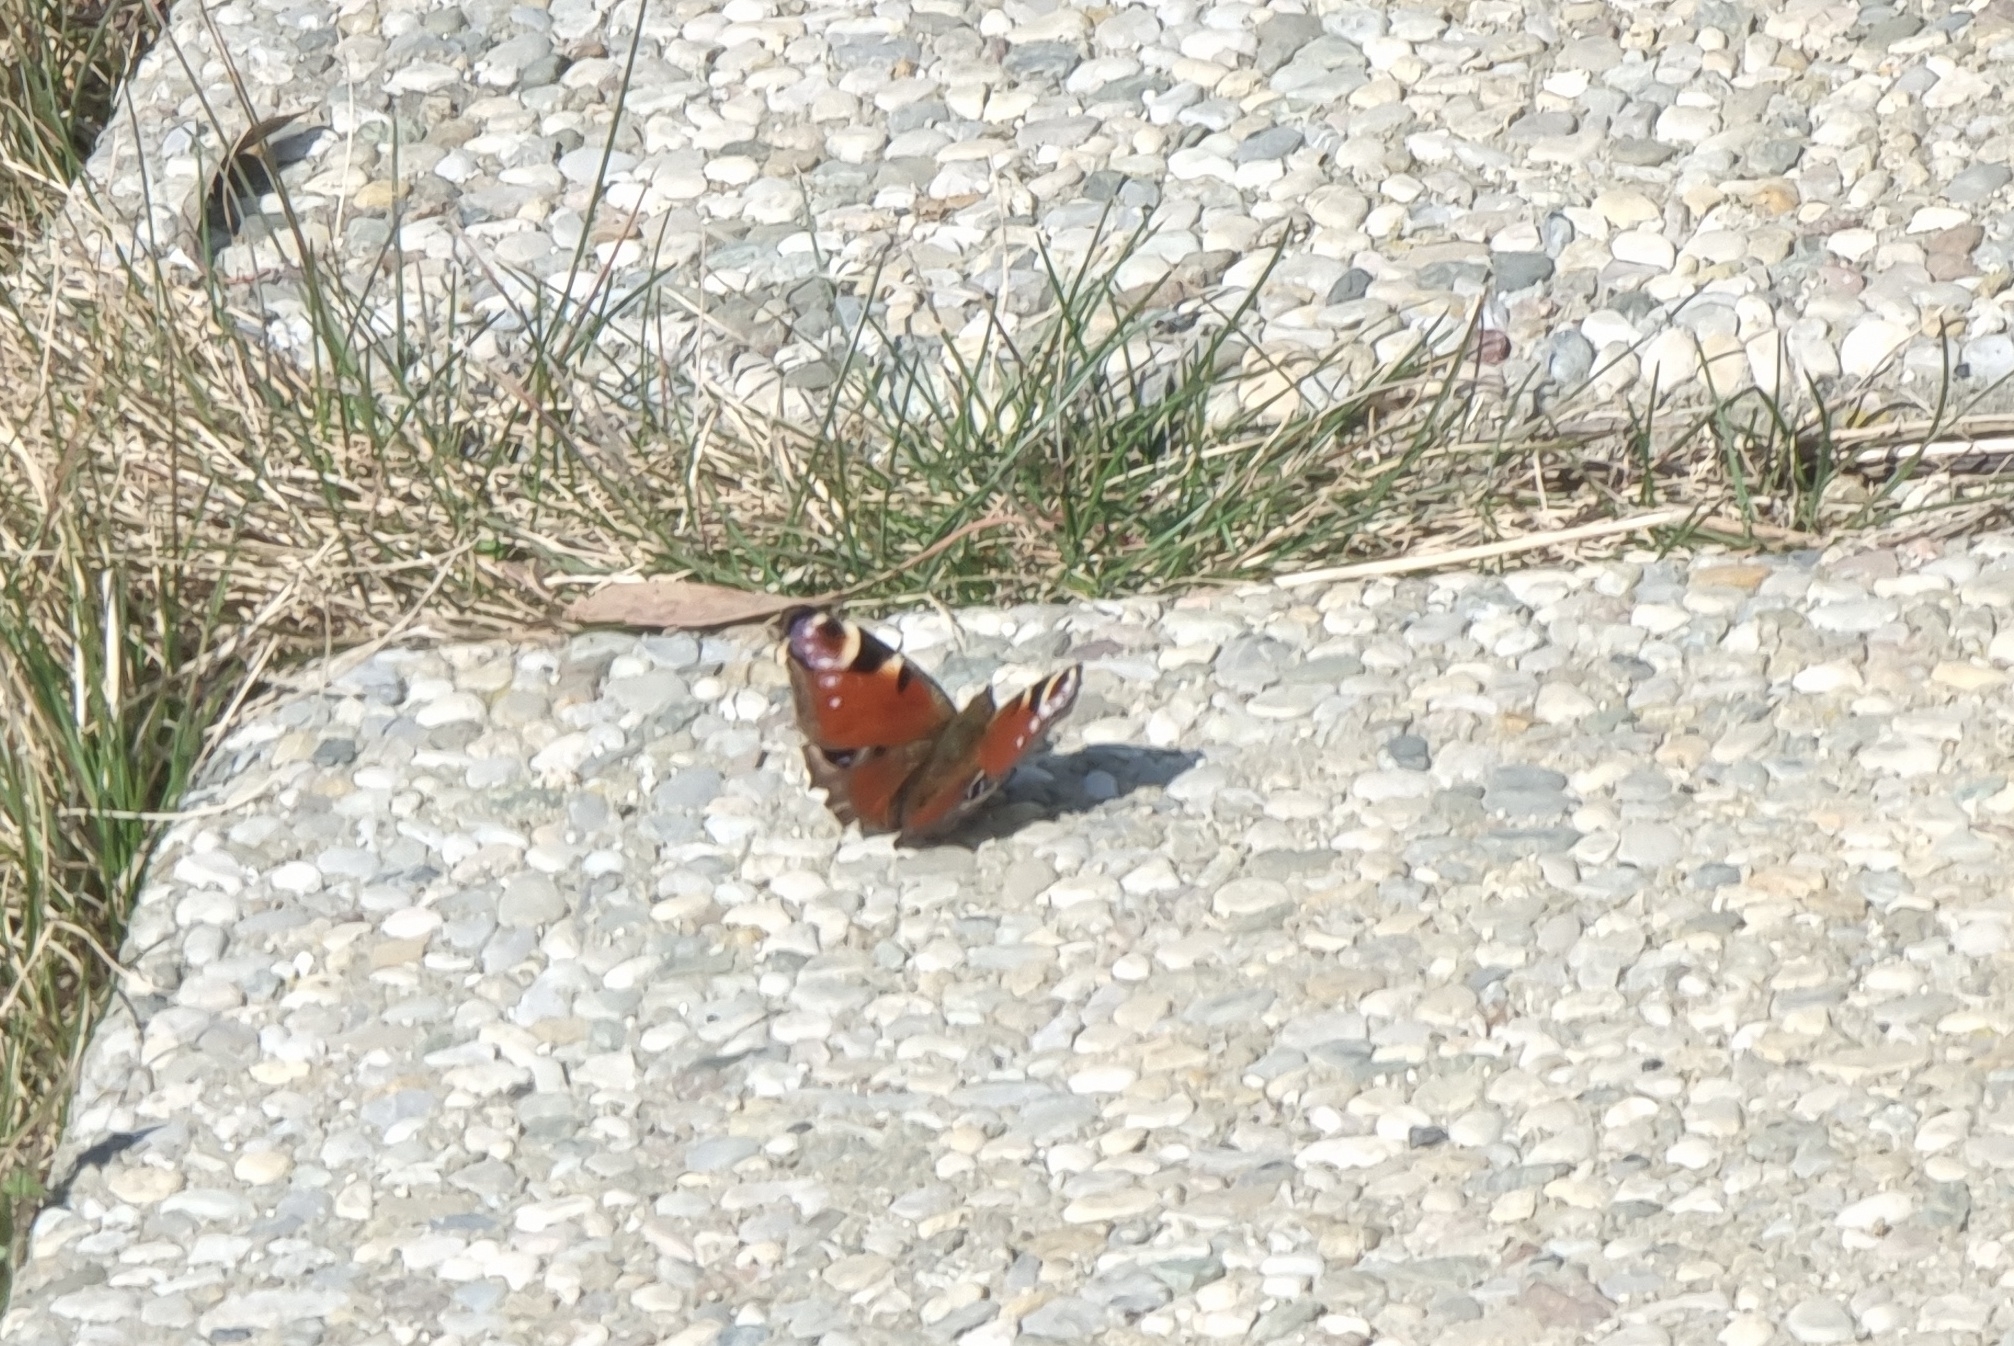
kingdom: Animalia
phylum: Arthropoda
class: Insecta
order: Lepidoptera
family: Nymphalidae
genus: Aglais
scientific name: Aglais io
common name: Peacock
